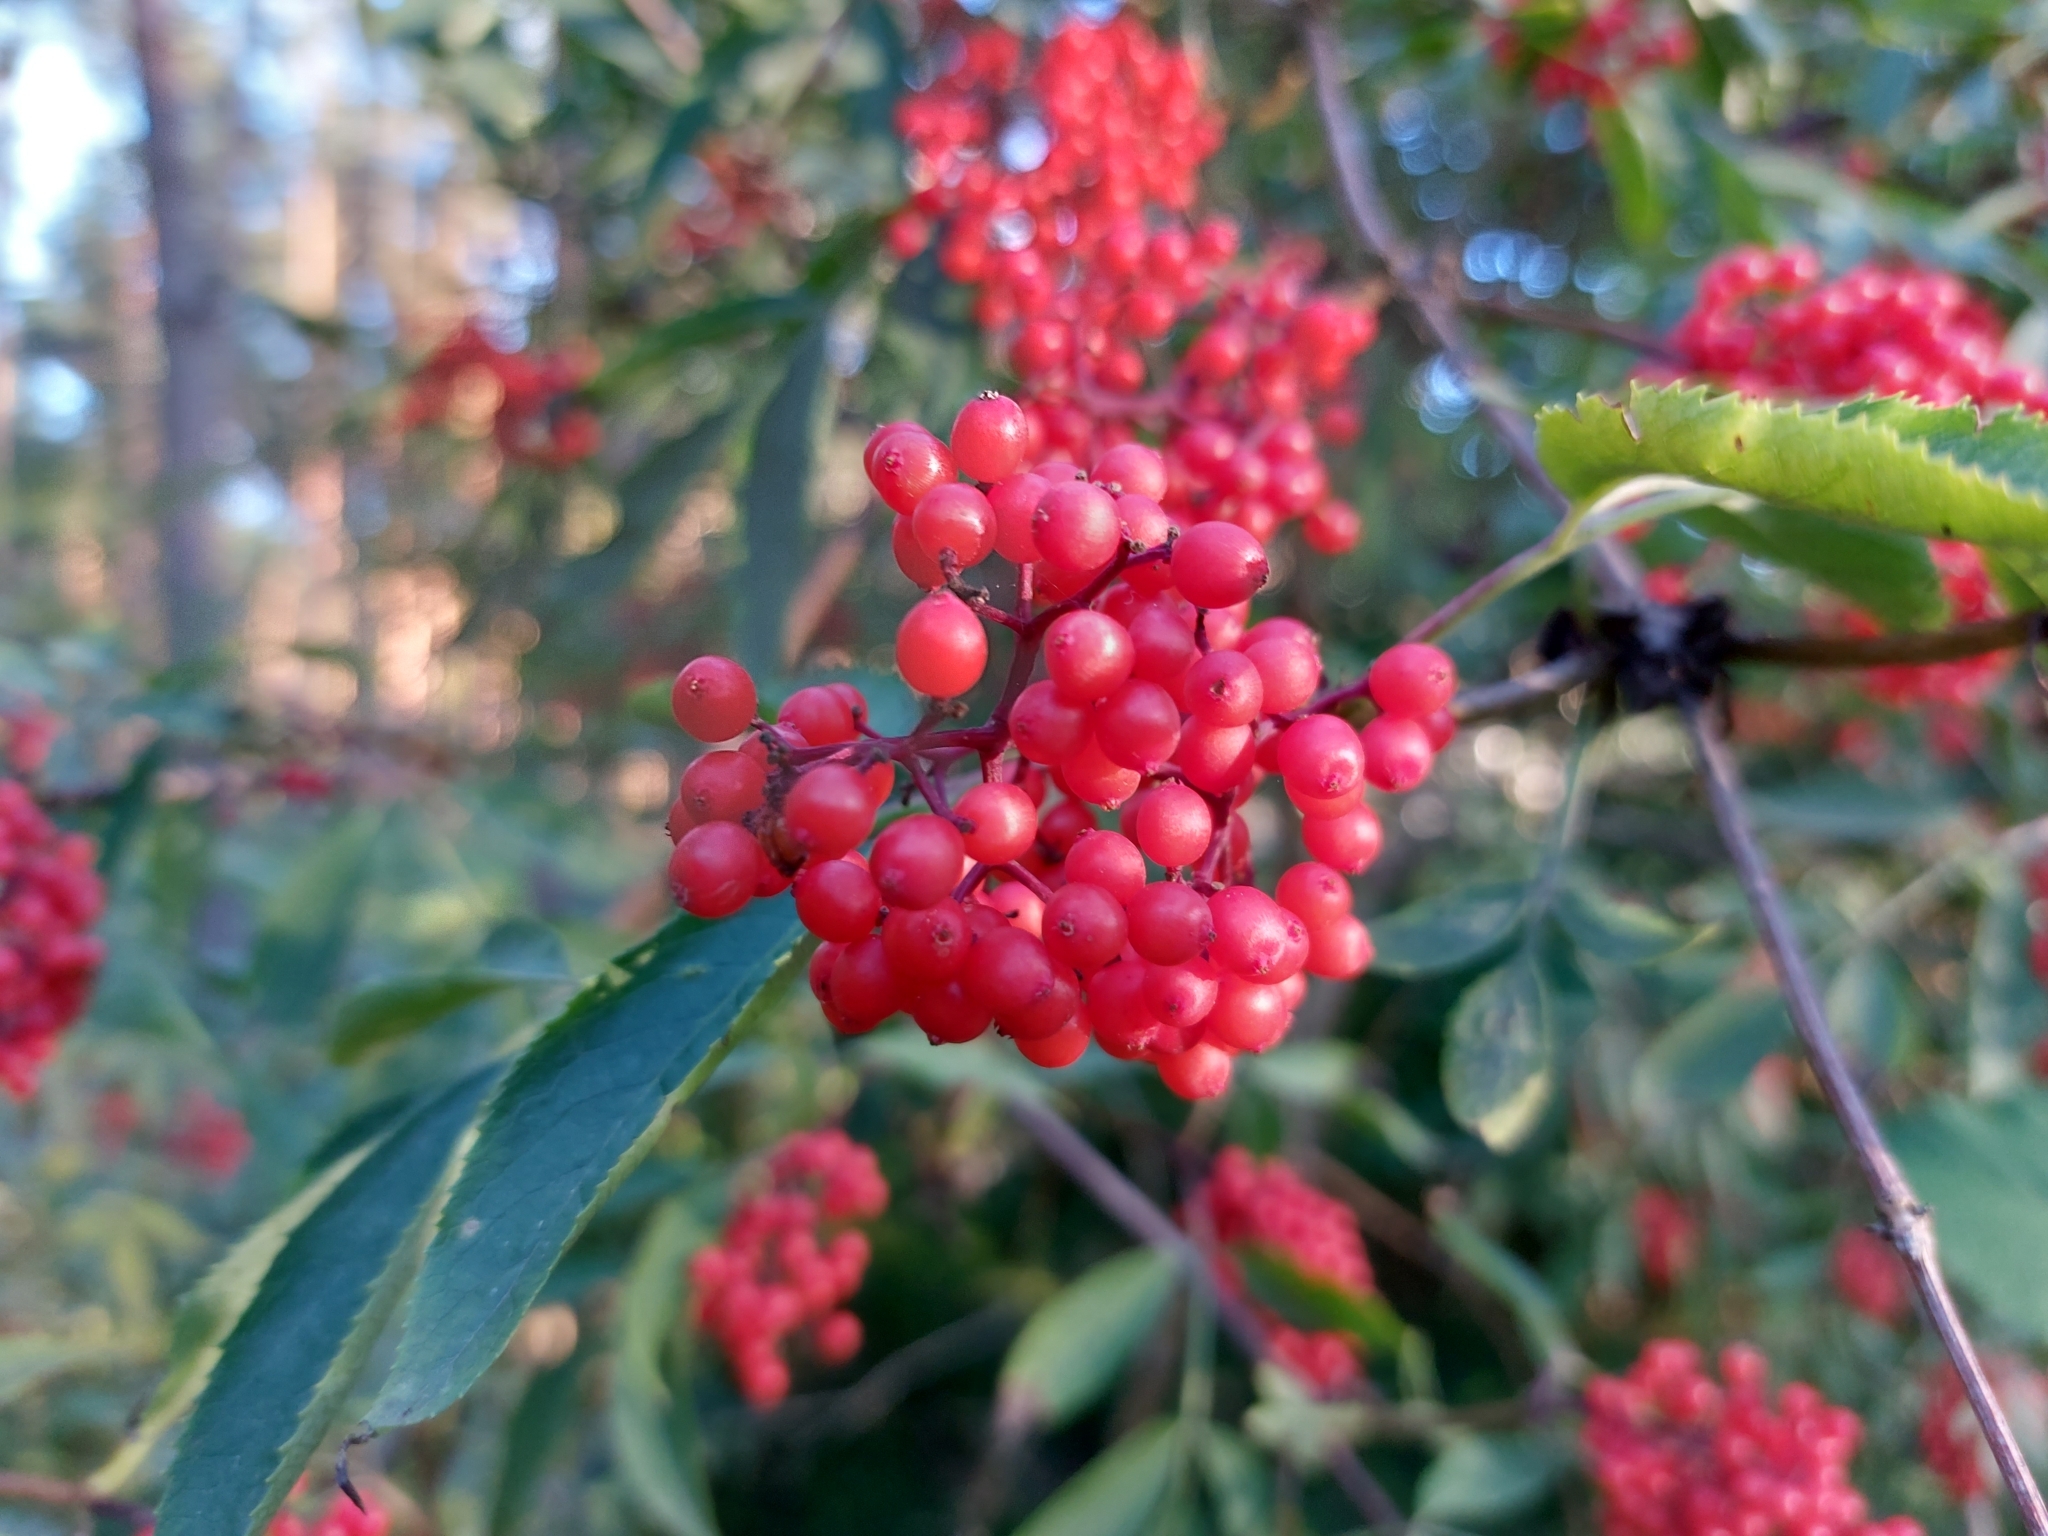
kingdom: Plantae
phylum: Tracheophyta
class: Magnoliopsida
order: Dipsacales
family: Viburnaceae
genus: Sambucus
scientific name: Sambucus racemosa
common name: Red-berried elder
